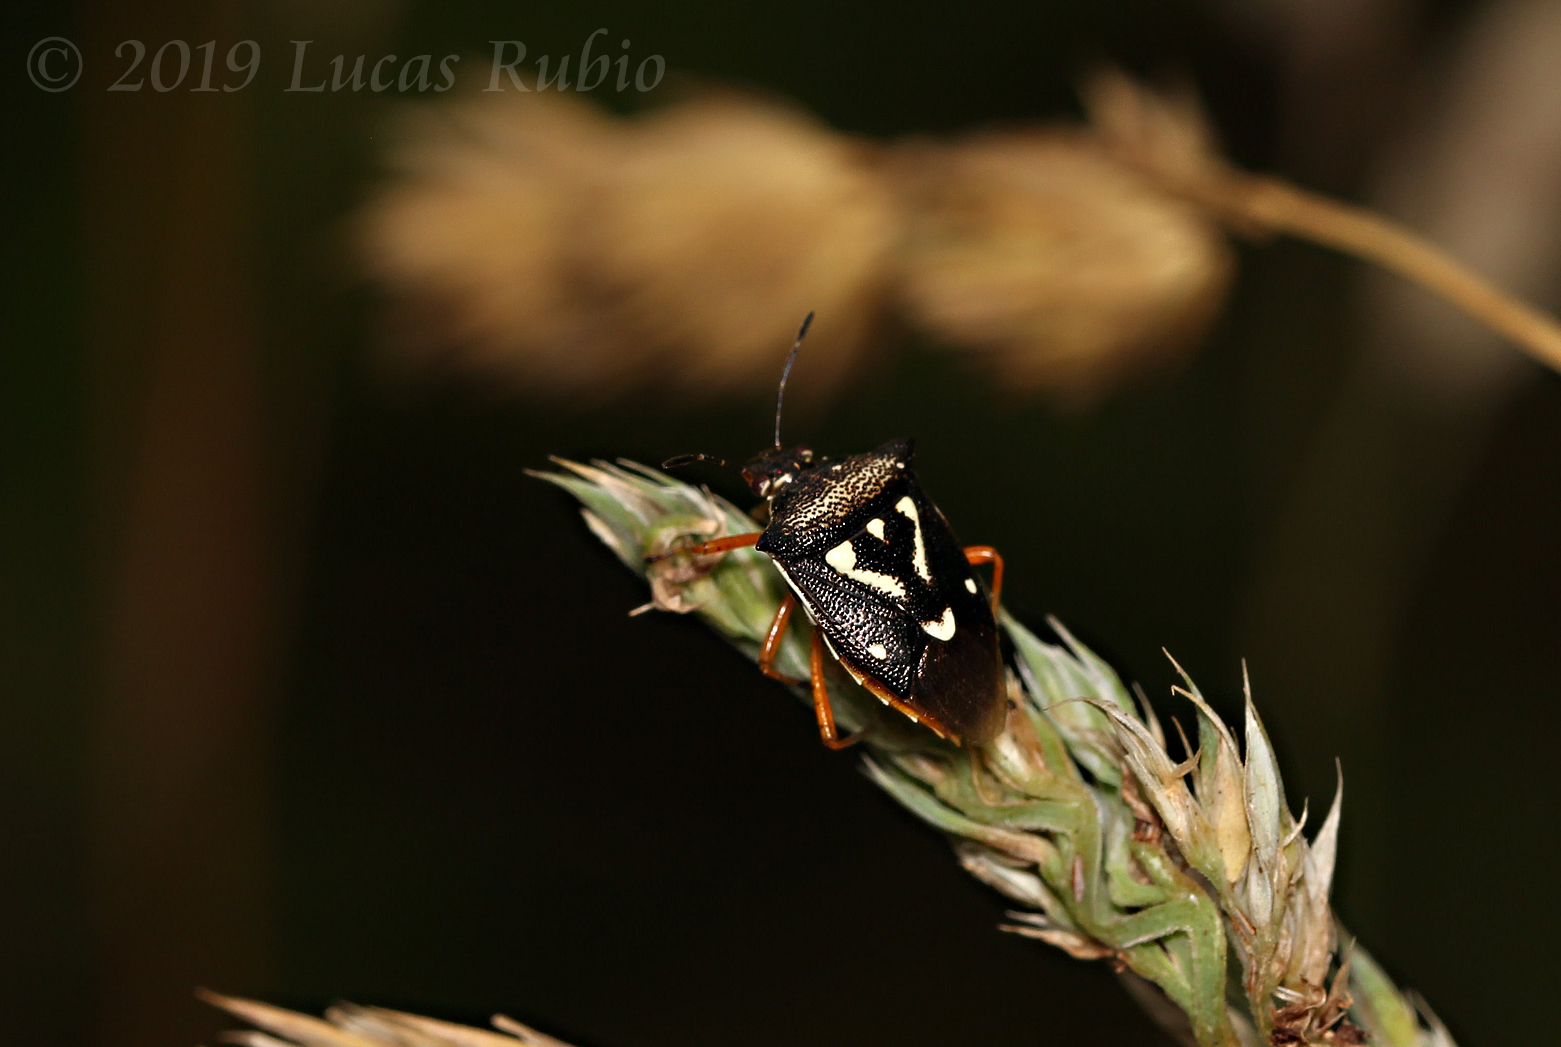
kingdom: Animalia
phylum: Arthropoda
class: Insecta
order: Hemiptera
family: Pentatomidae
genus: Mormidea
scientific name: Mormidea v-luteum
